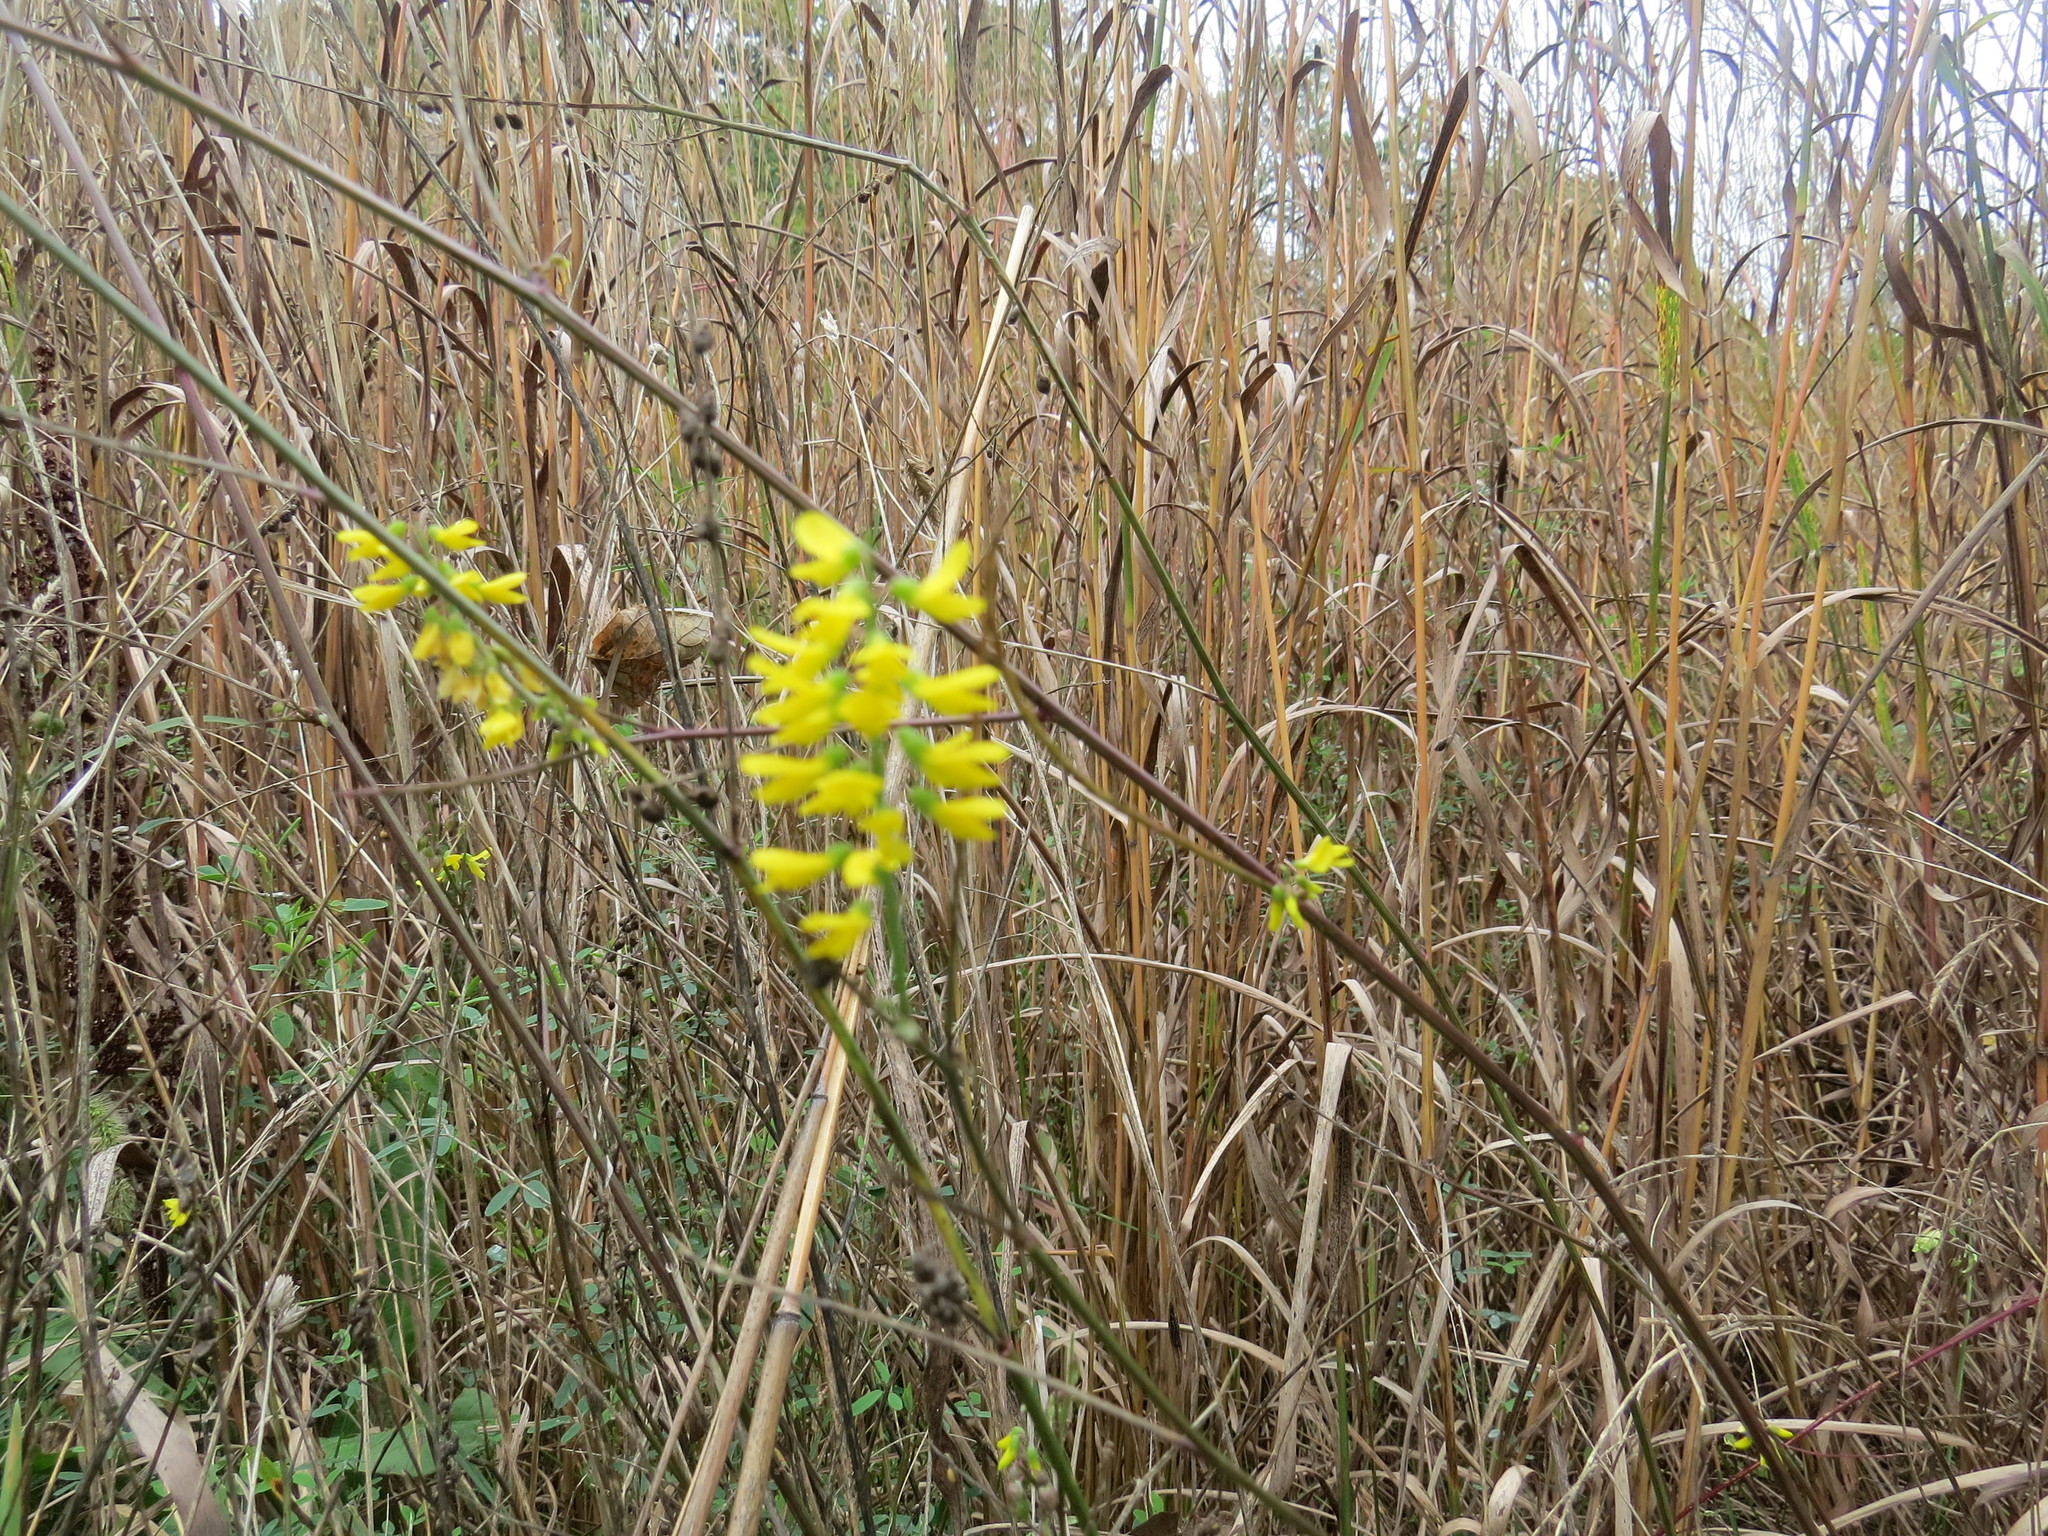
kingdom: Plantae
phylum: Tracheophyta
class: Magnoliopsida
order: Fabales
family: Fabaceae
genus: Melilotus
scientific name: Melilotus altissimus
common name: Tall melilot
